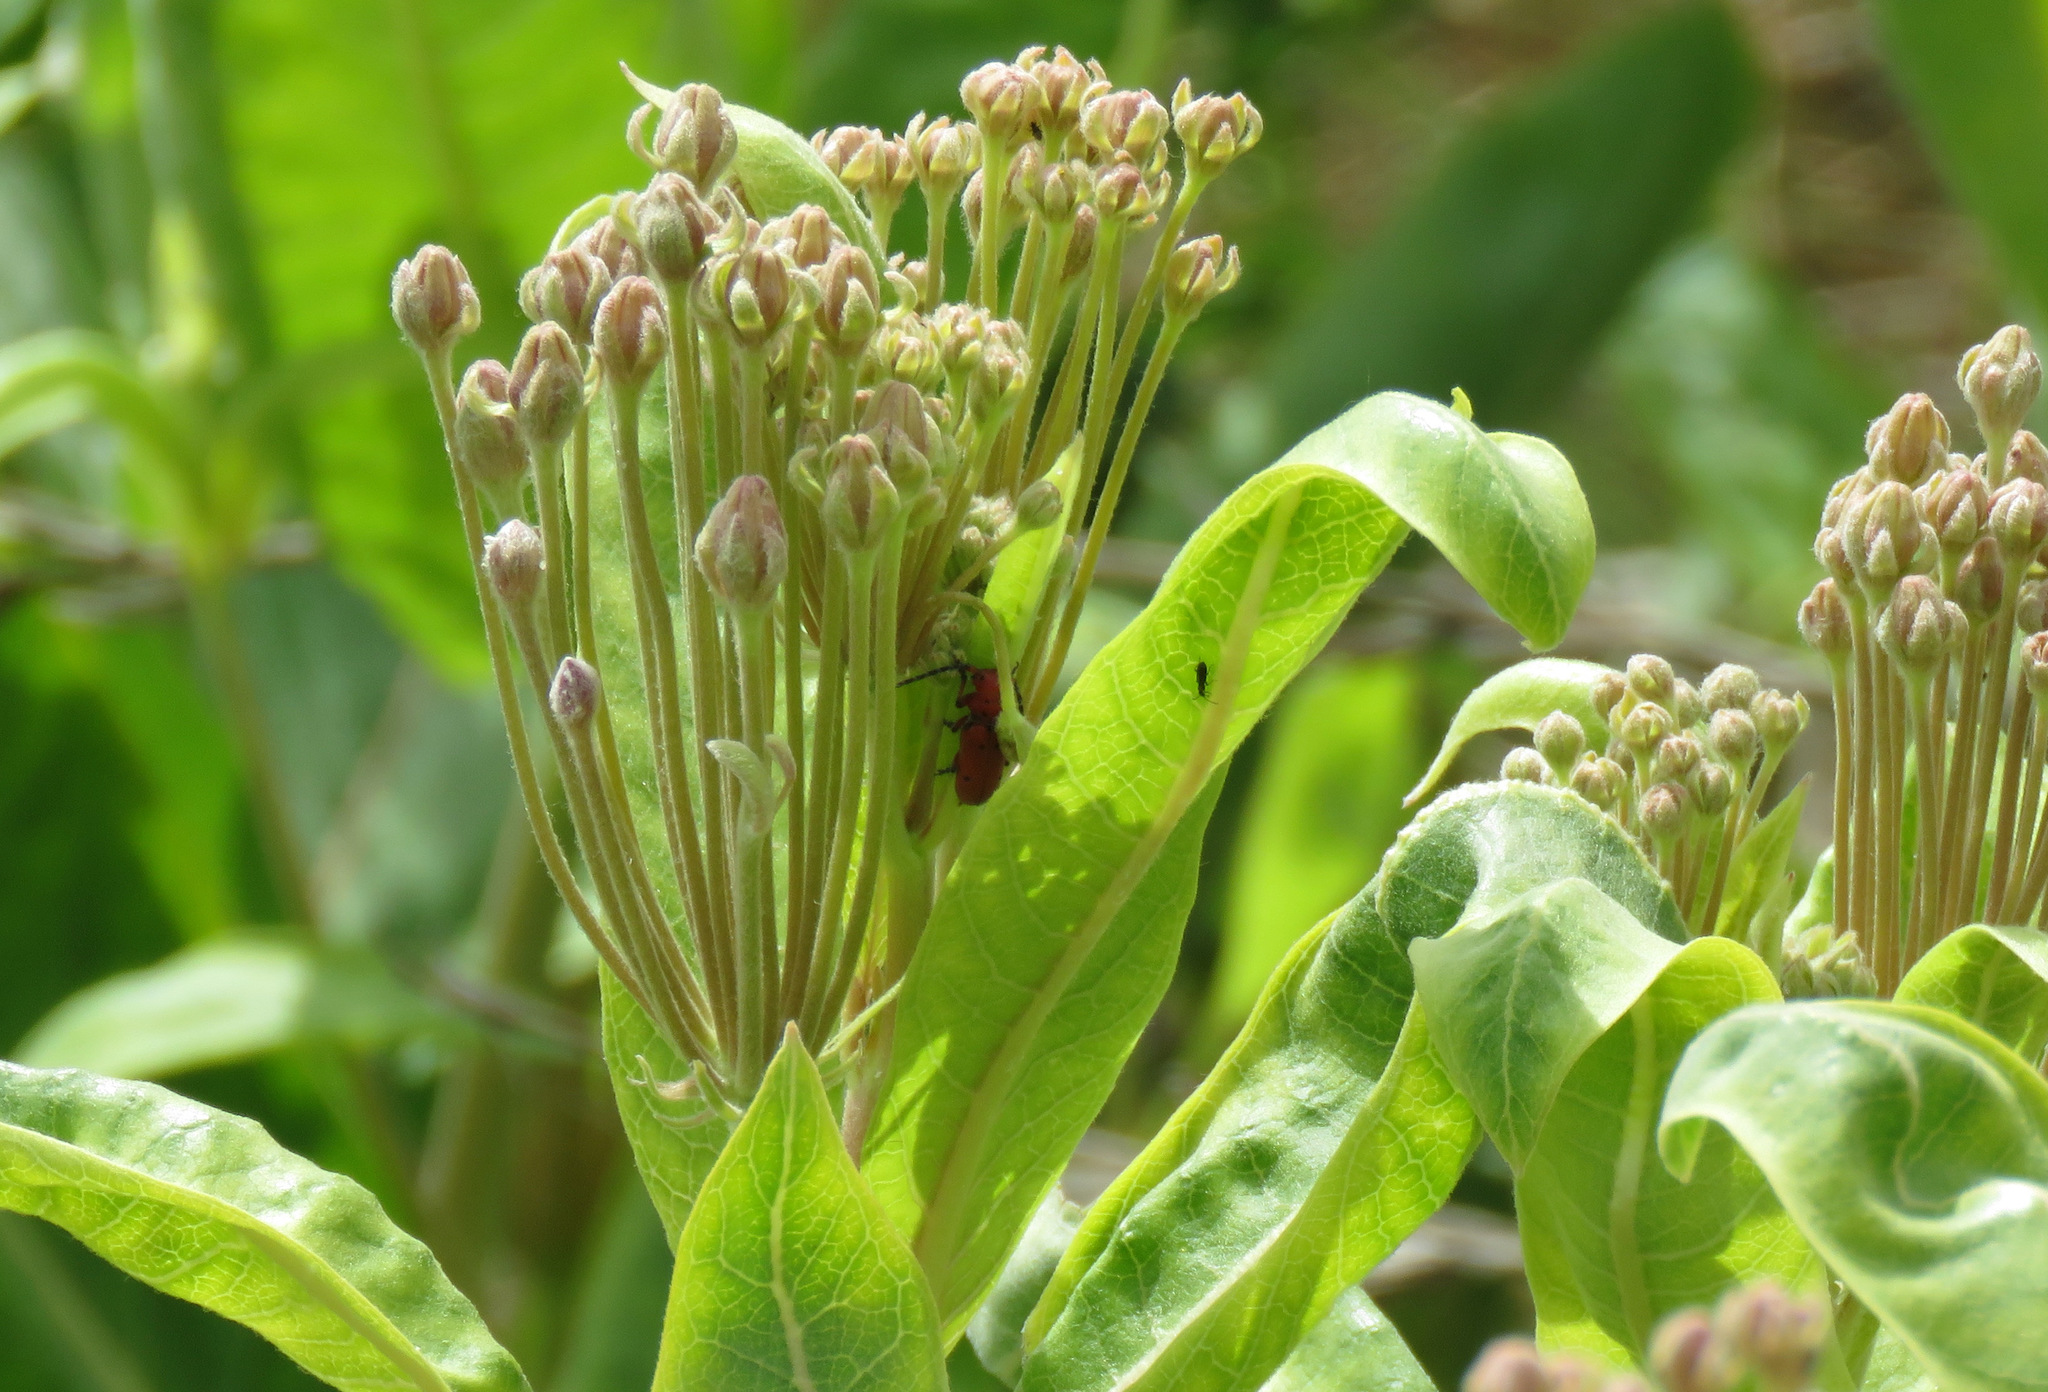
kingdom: Animalia
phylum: Arthropoda
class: Insecta
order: Coleoptera
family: Cerambycidae
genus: Tetraopes
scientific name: Tetraopes femoratus
